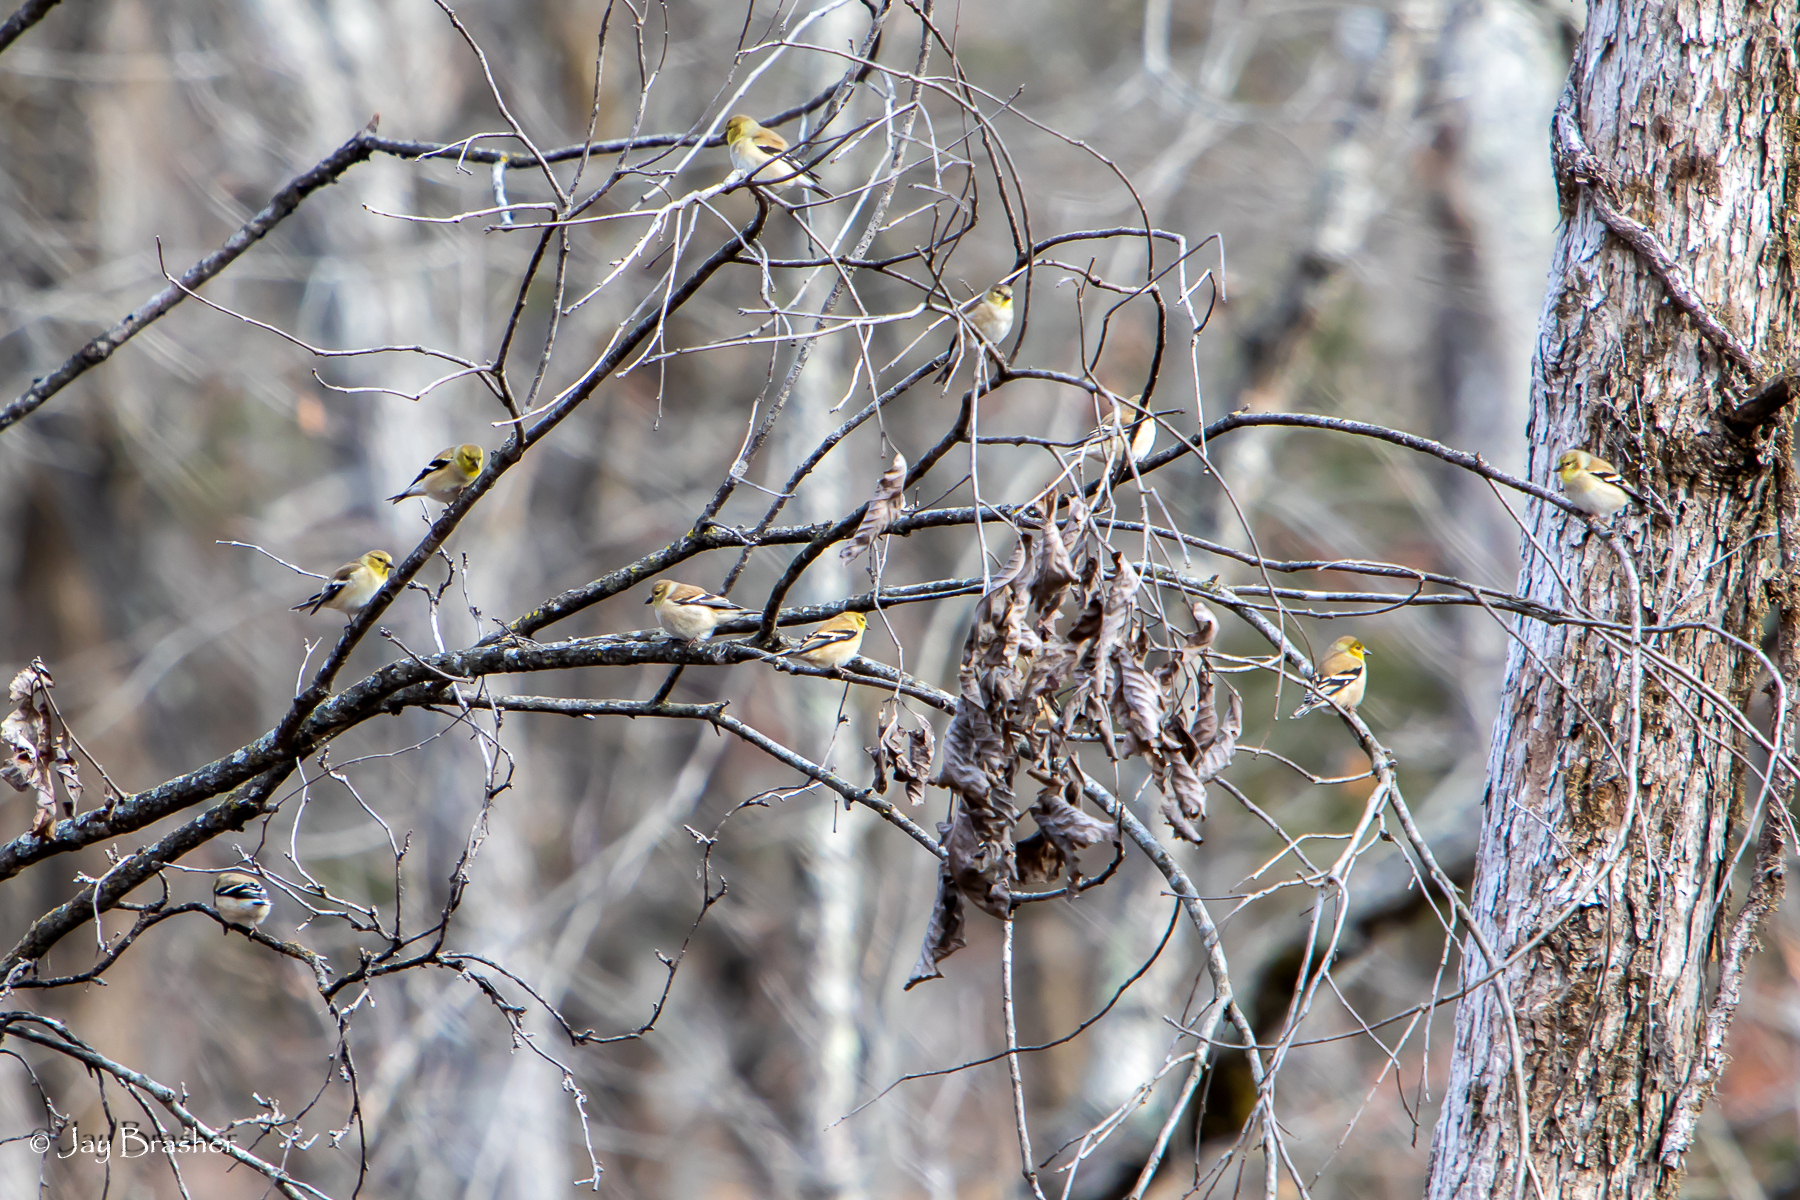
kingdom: Animalia
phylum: Chordata
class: Aves
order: Passeriformes
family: Fringillidae
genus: Spinus
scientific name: Spinus tristis
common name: American goldfinch
